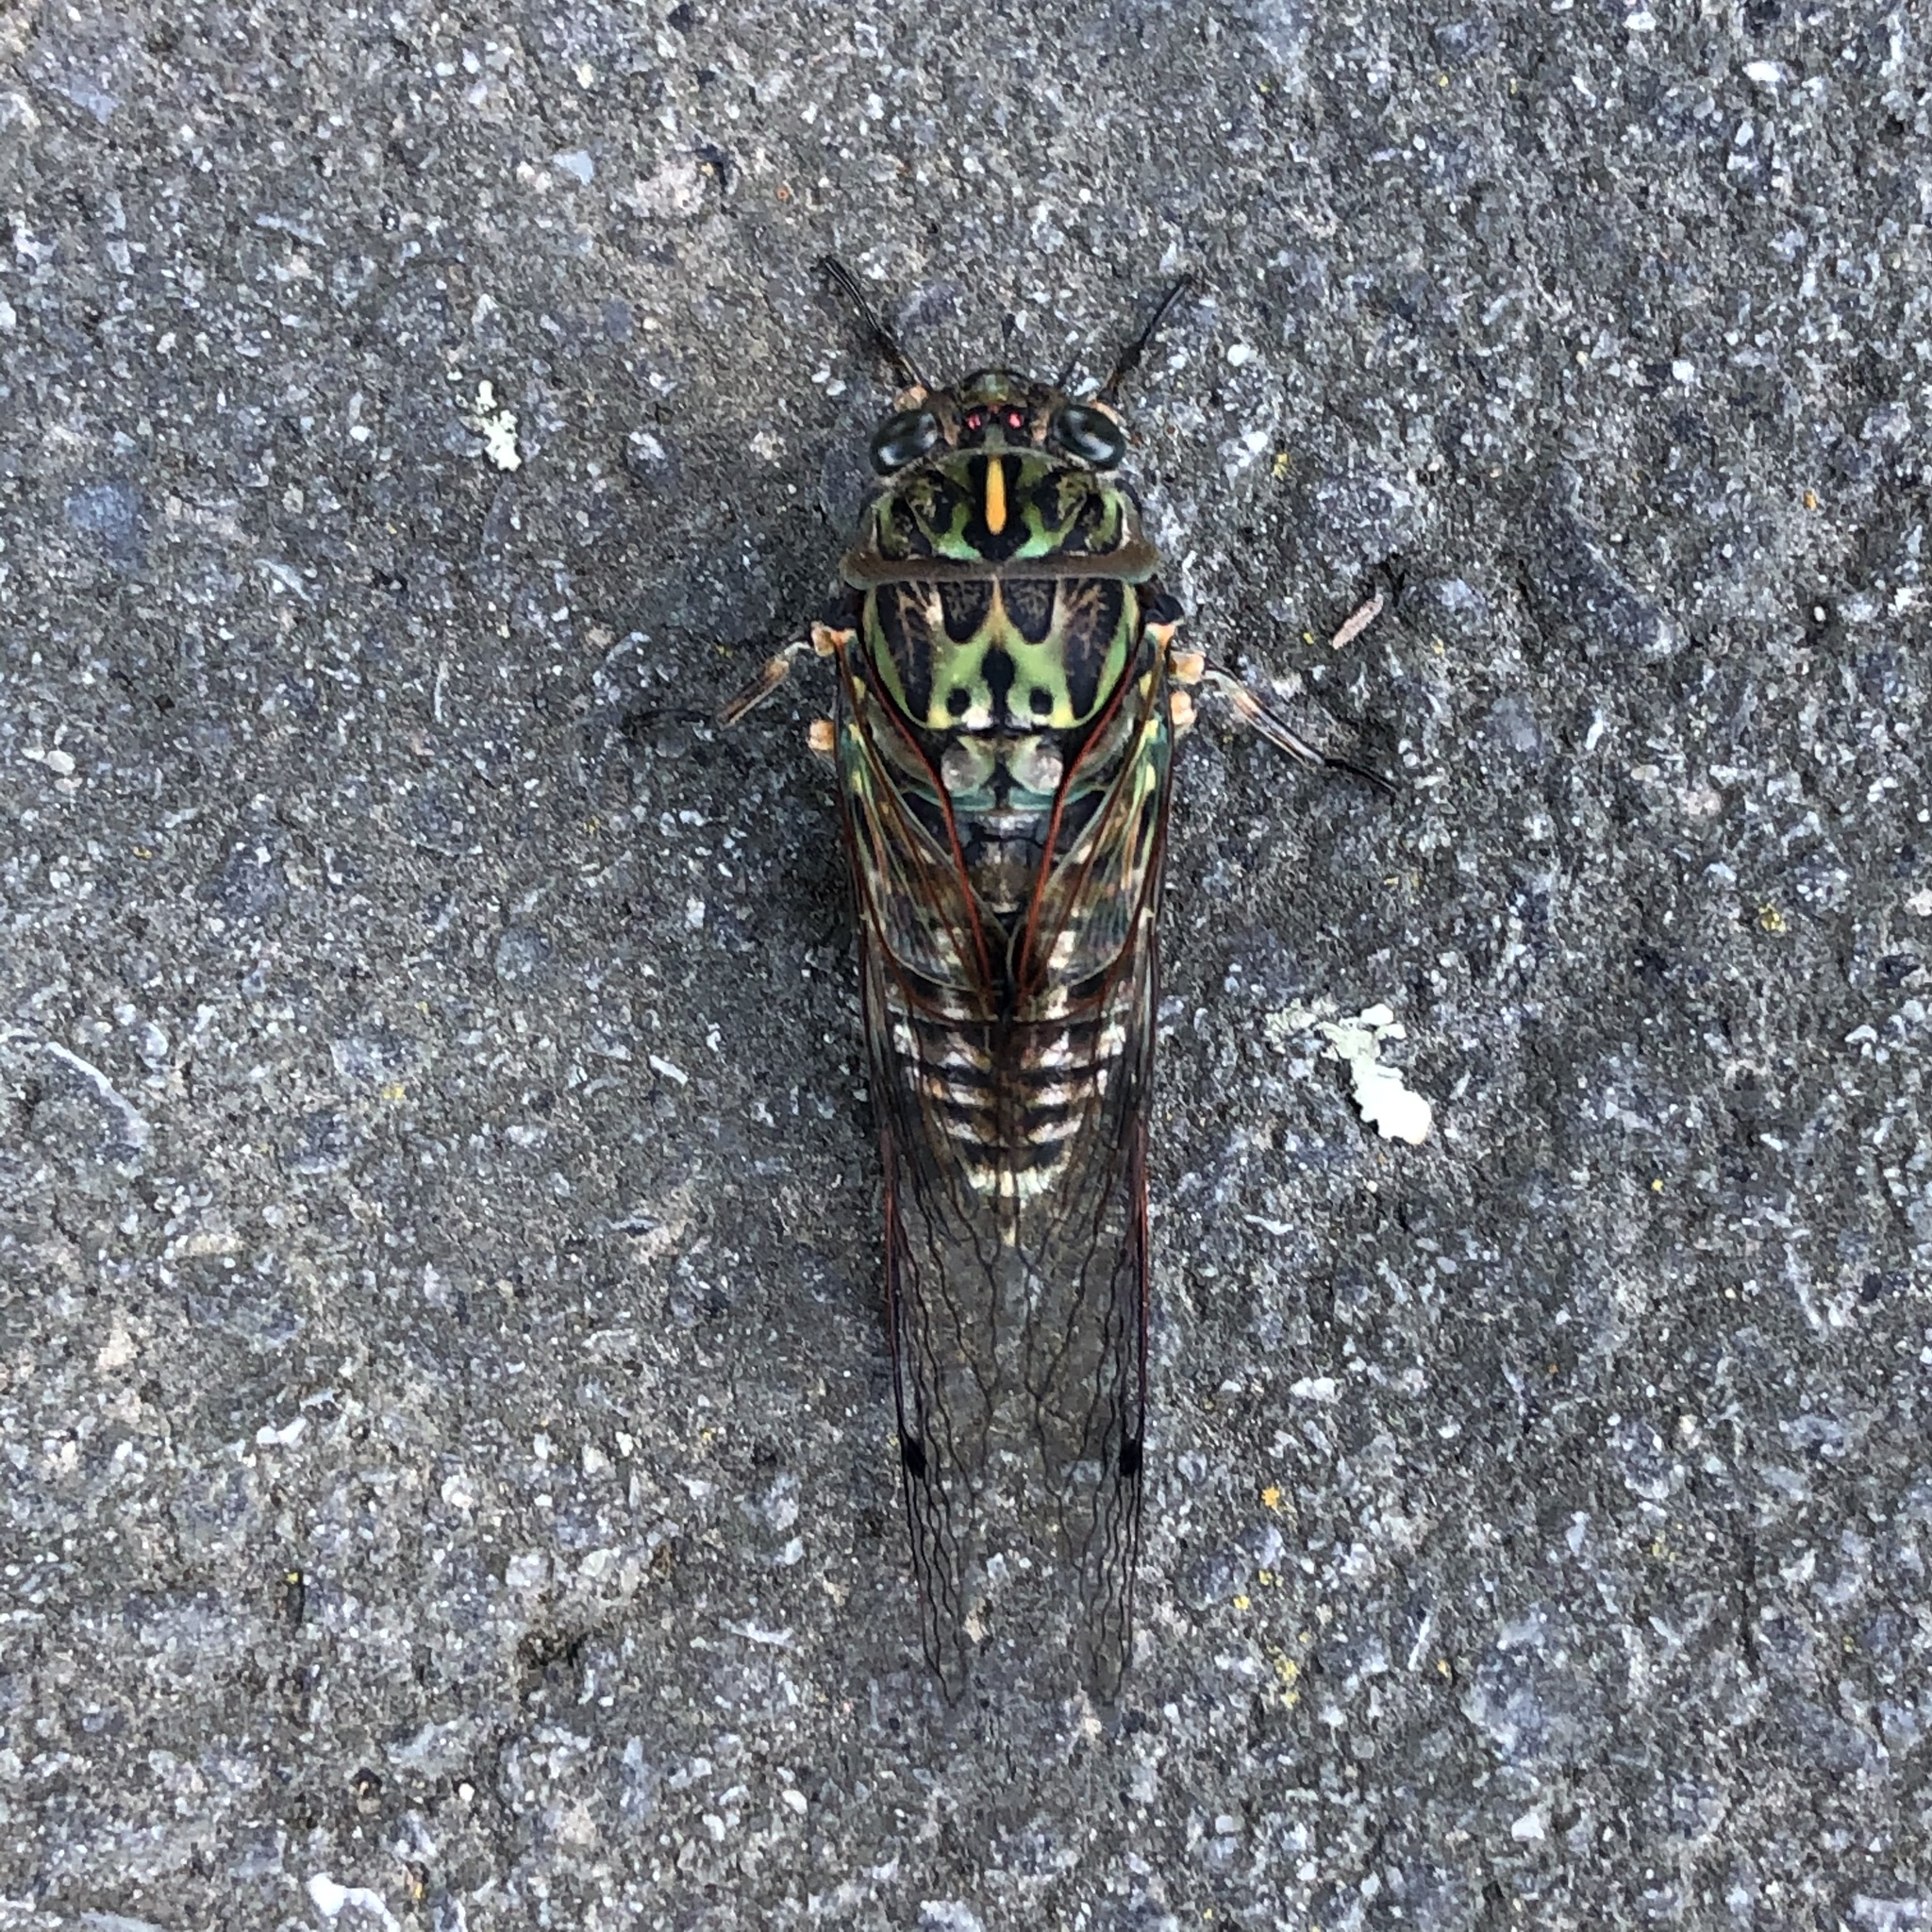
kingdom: Animalia
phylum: Arthropoda
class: Insecta
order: Hemiptera
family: Cicadidae
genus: Amphipsalta
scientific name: Amphipsalta zelandica
